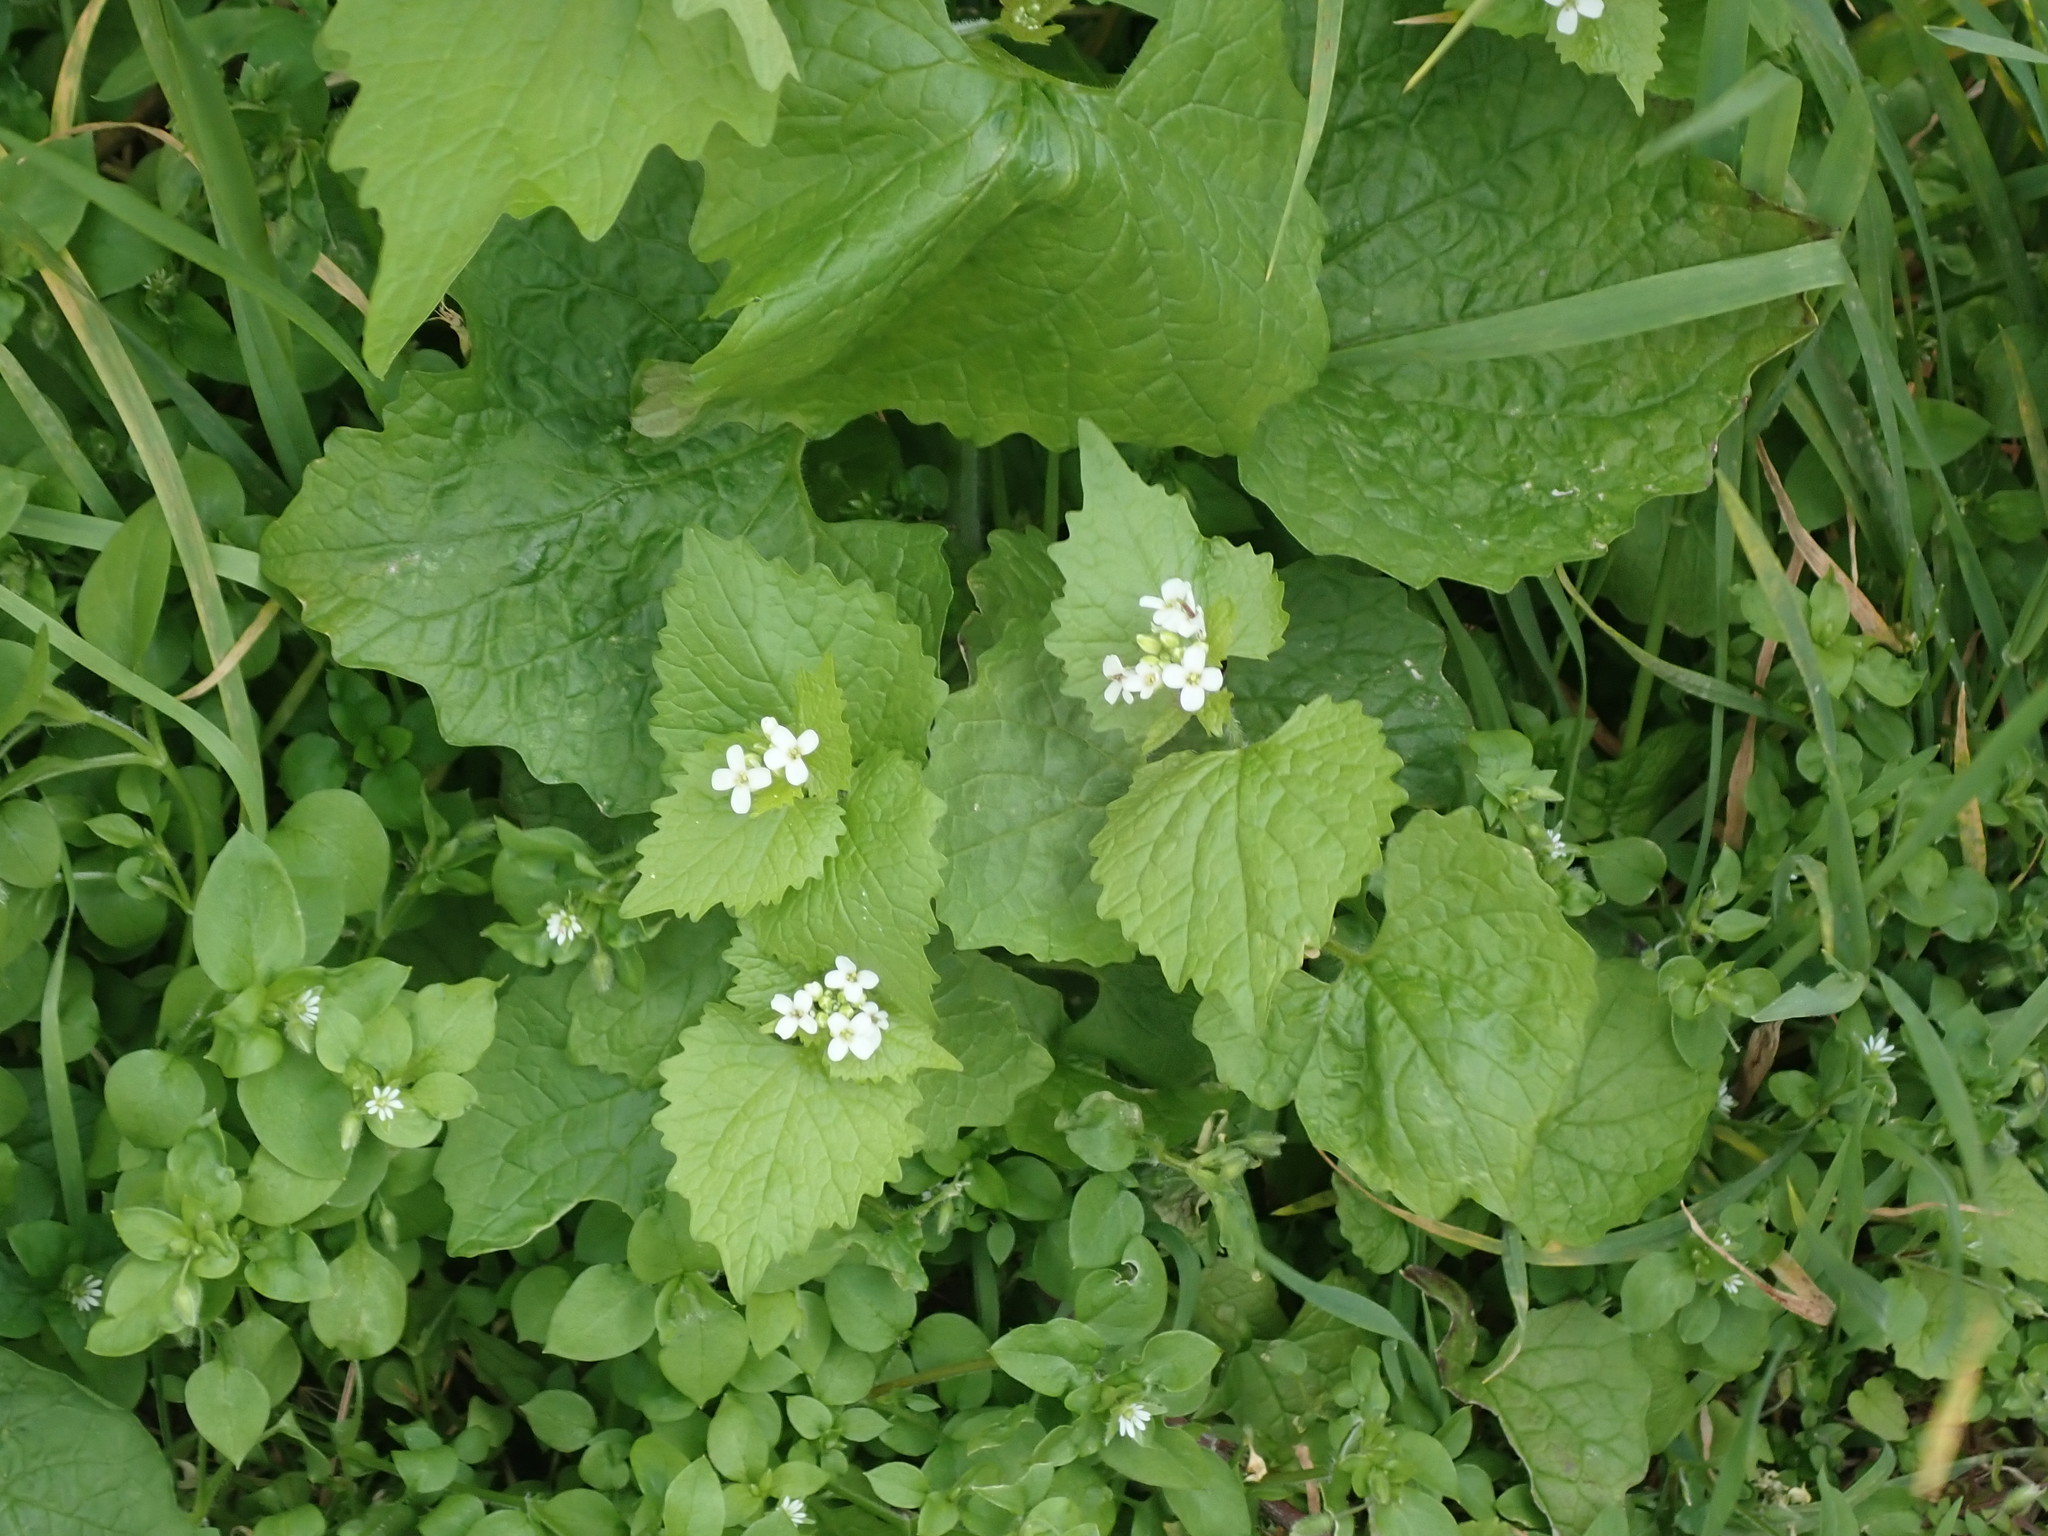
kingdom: Plantae
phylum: Tracheophyta
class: Magnoliopsida
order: Brassicales
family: Brassicaceae
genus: Alliaria
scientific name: Alliaria petiolata
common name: Garlic mustard
